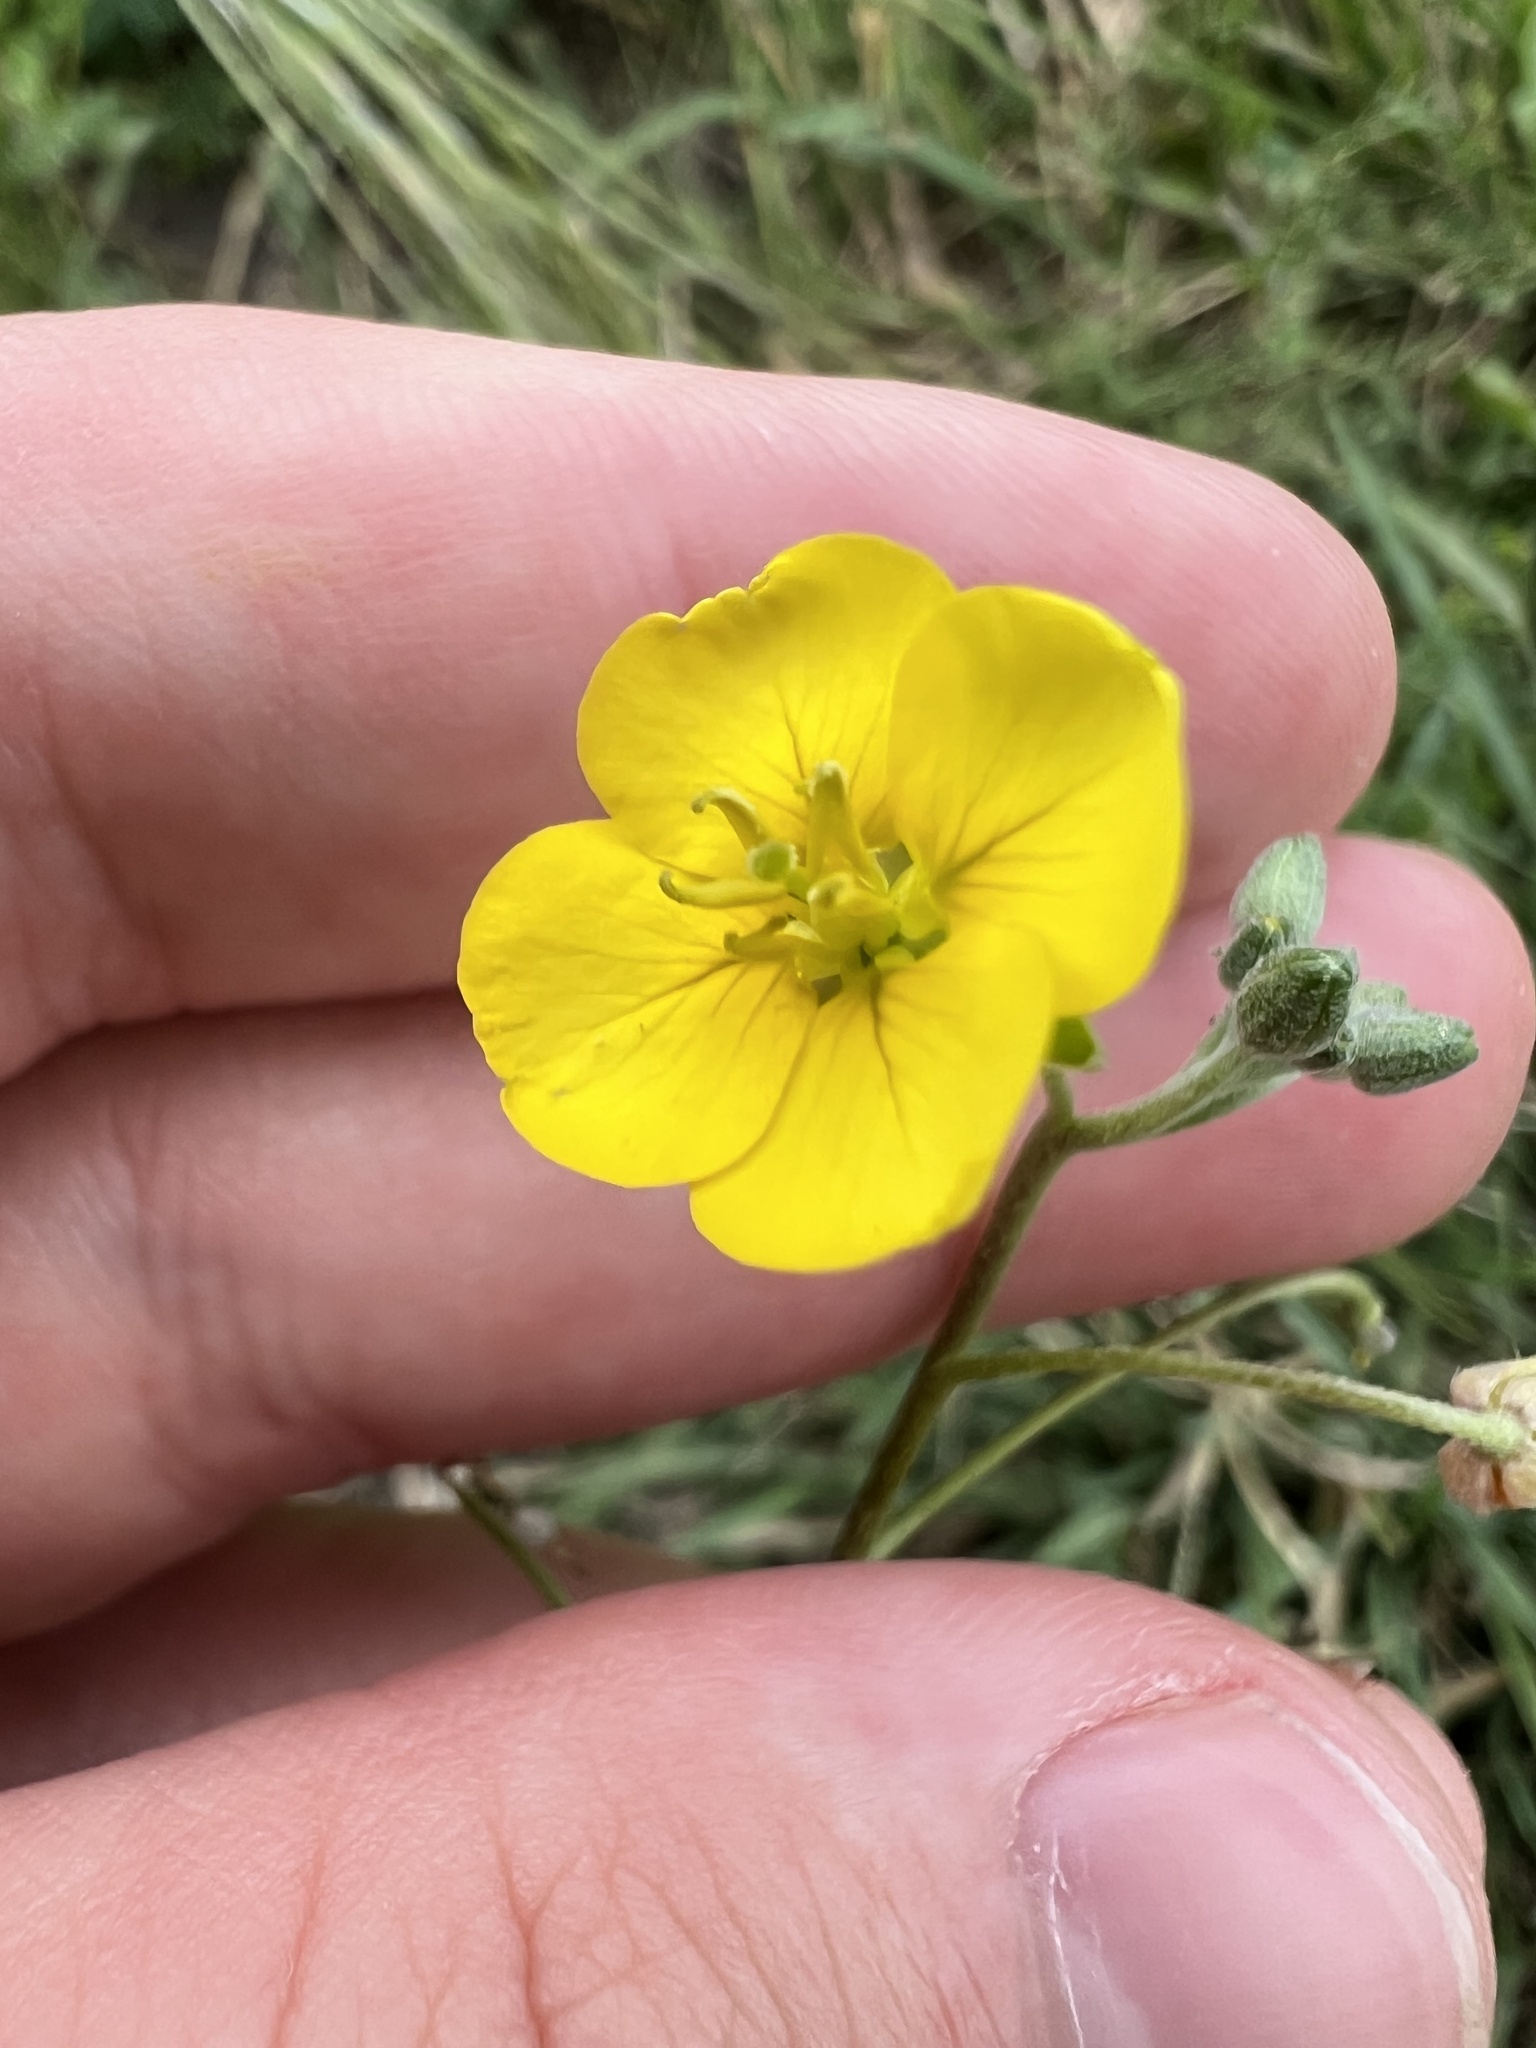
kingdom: Plantae
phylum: Tracheophyta
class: Magnoliopsida
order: Brassicales
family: Brassicaceae
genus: Paysonia
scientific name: Paysonia lasiocarpa
